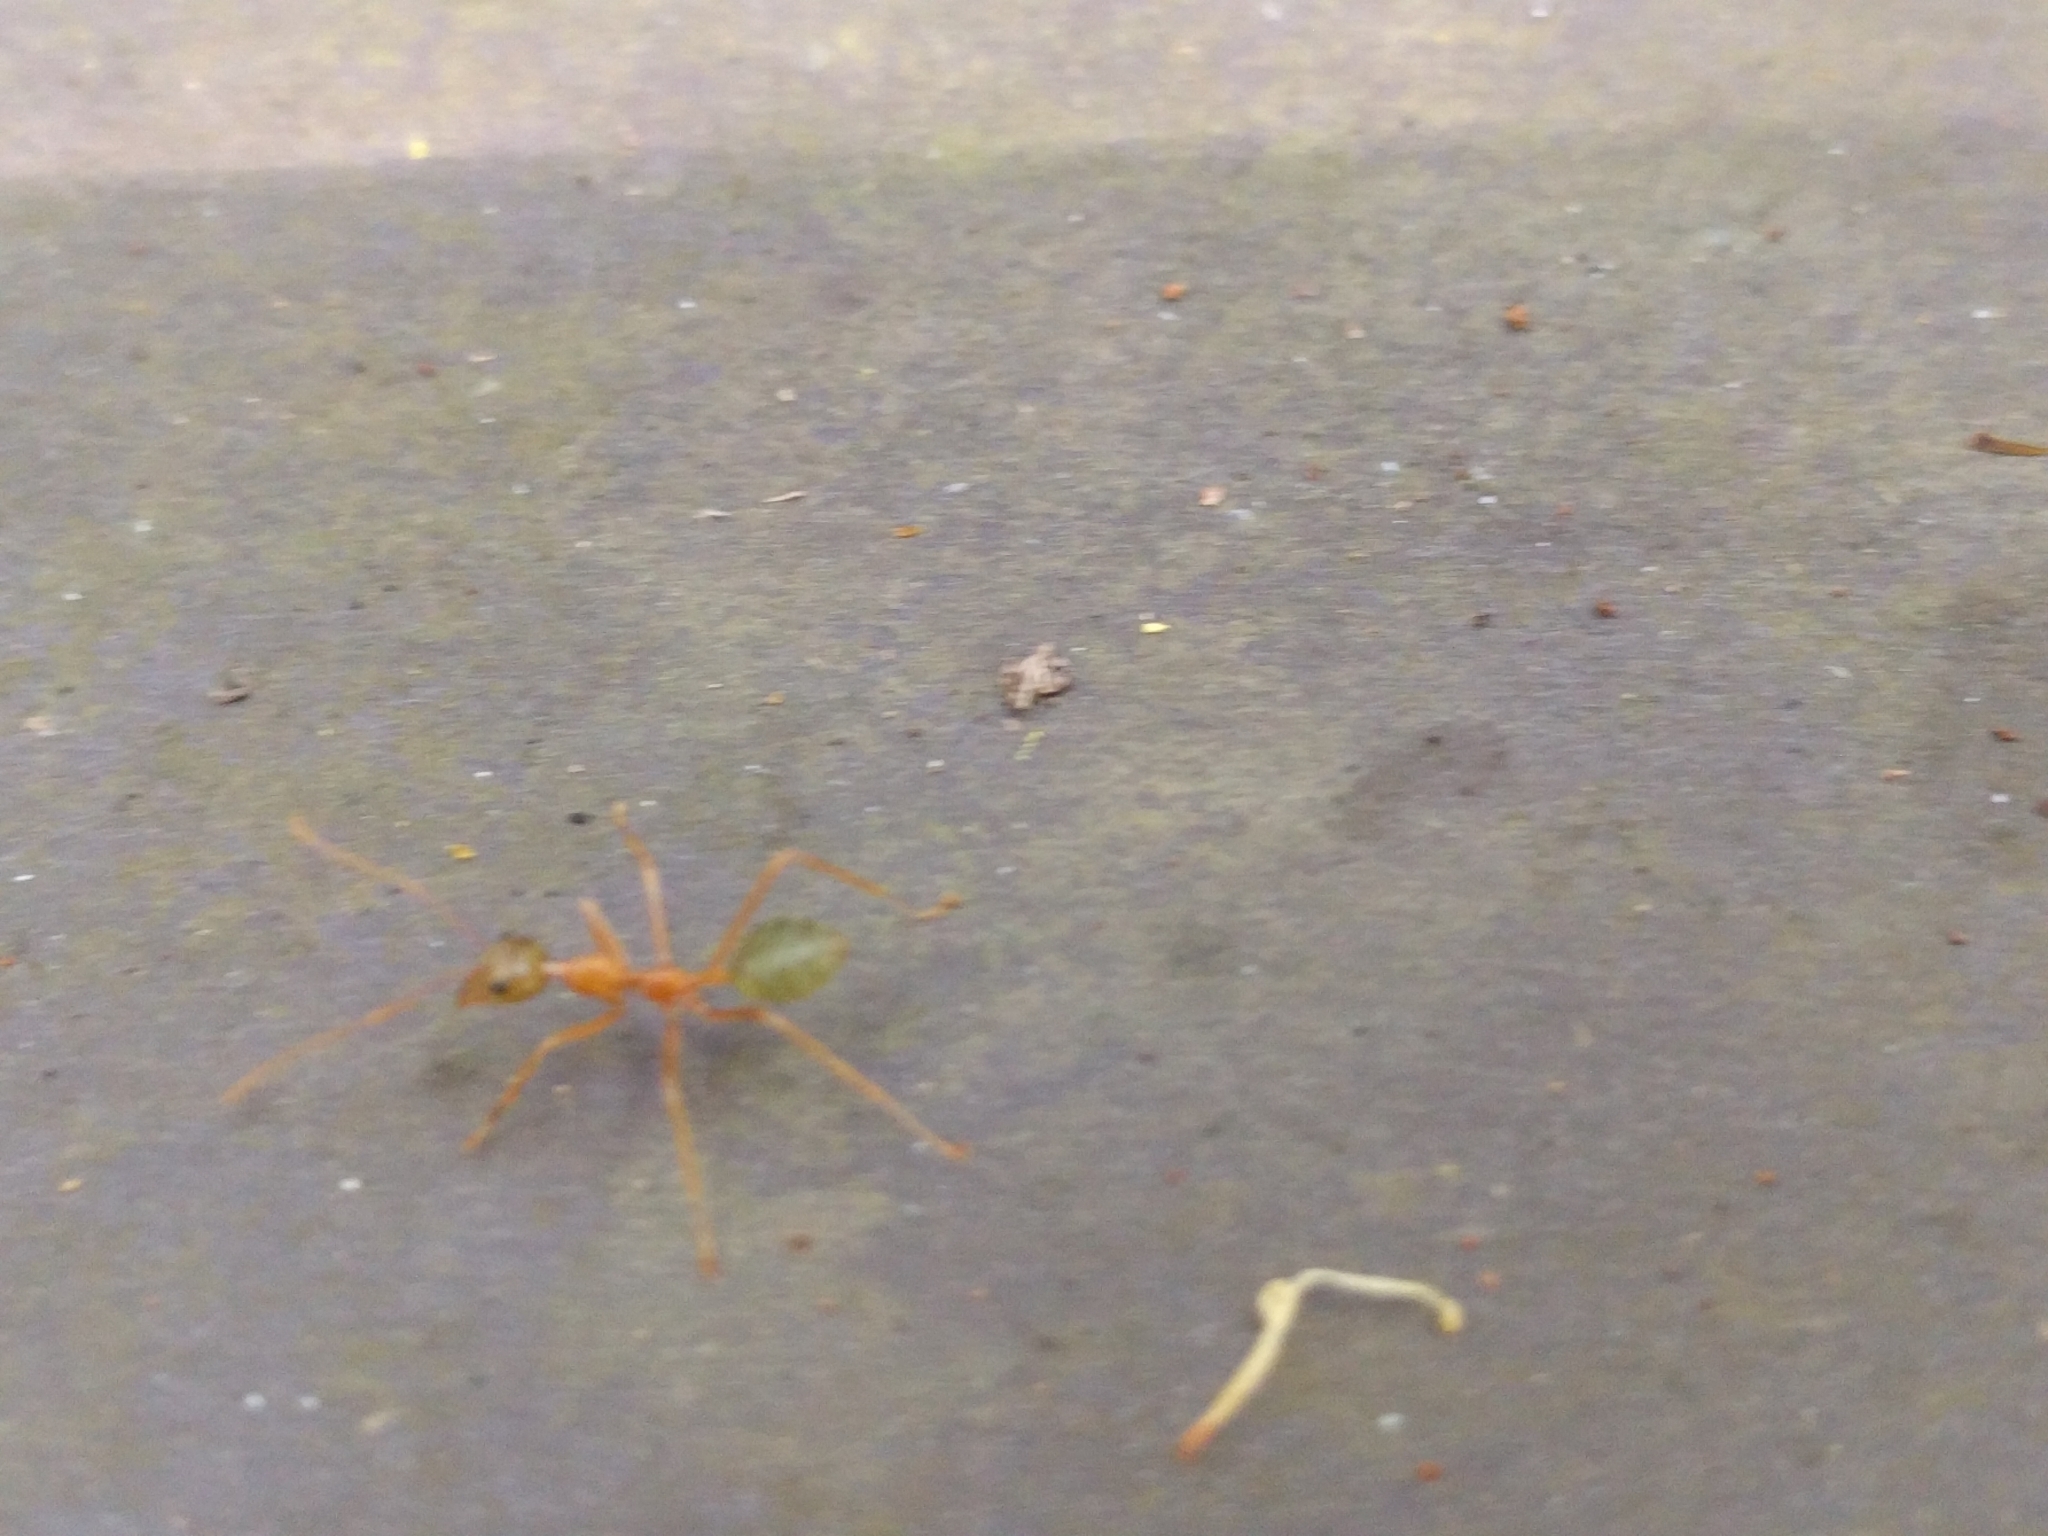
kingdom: Animalia
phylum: Arthropoda
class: Insecta
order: Hymenoptera
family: Formicidae
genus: Oecophylla
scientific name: Oecophylla smaragdina
